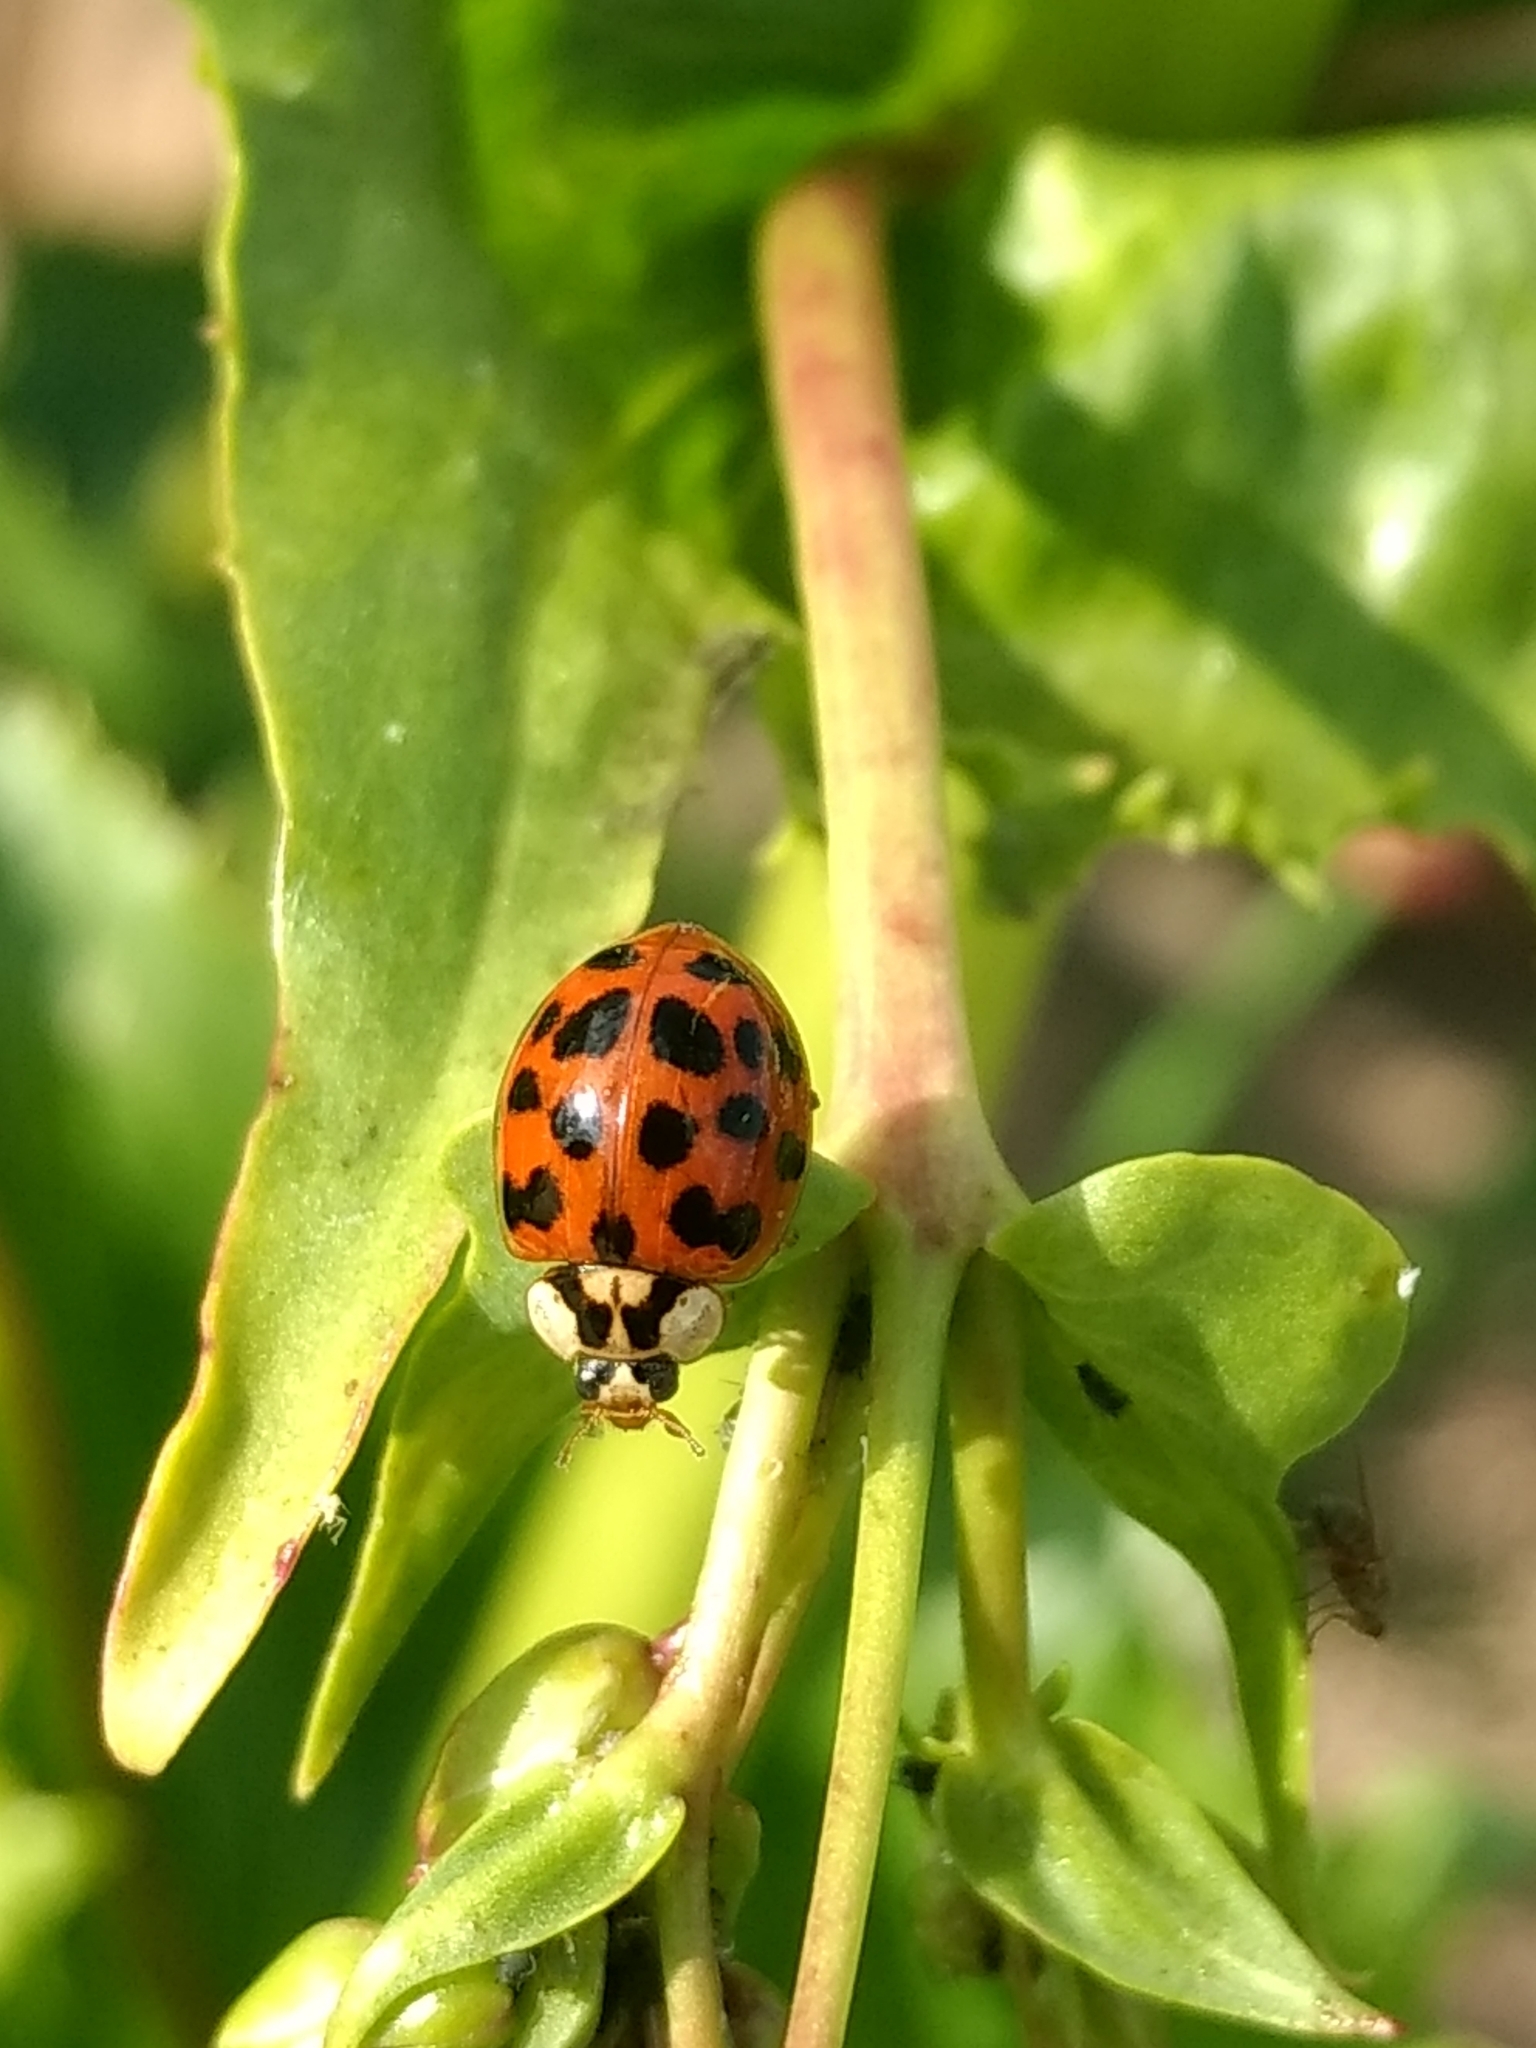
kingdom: Animalia
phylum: Arthropoda
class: Insecta
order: Coleoptera
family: Coccinellidae
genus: Harmonia
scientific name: Harmonia axyridis
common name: Harlequin ladybird
